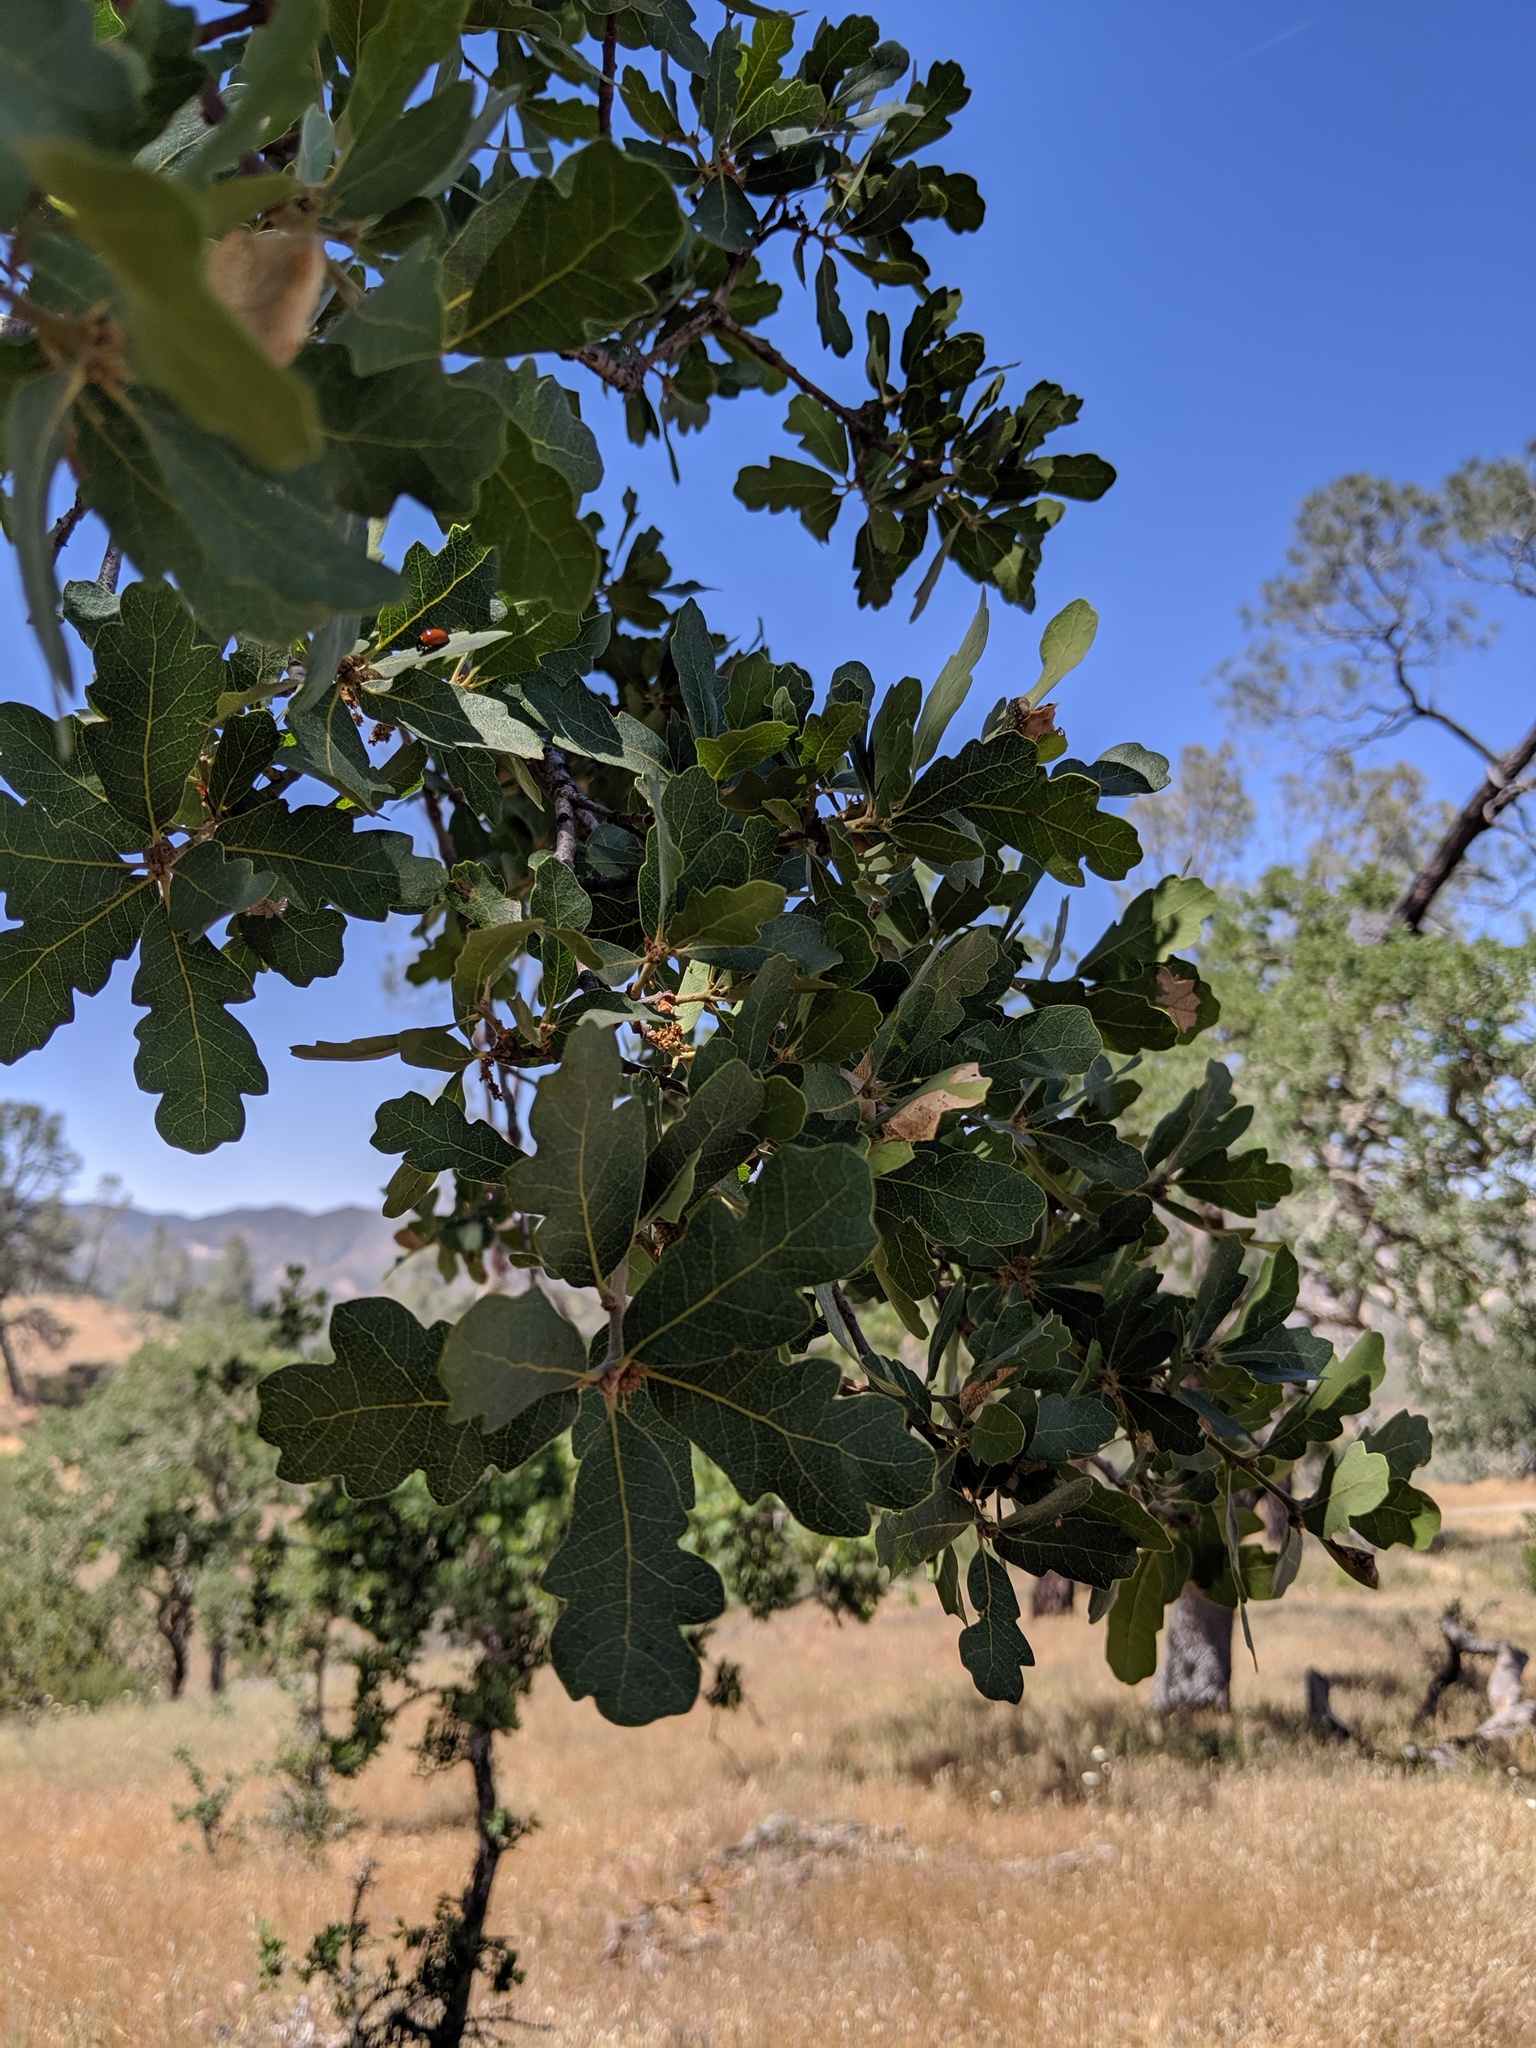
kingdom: Plantae
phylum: Tracheophyta
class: Magnoliopsida
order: Fagales
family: Fagaceae
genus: Quercus
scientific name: Quercus douglasii
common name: Blue oak
